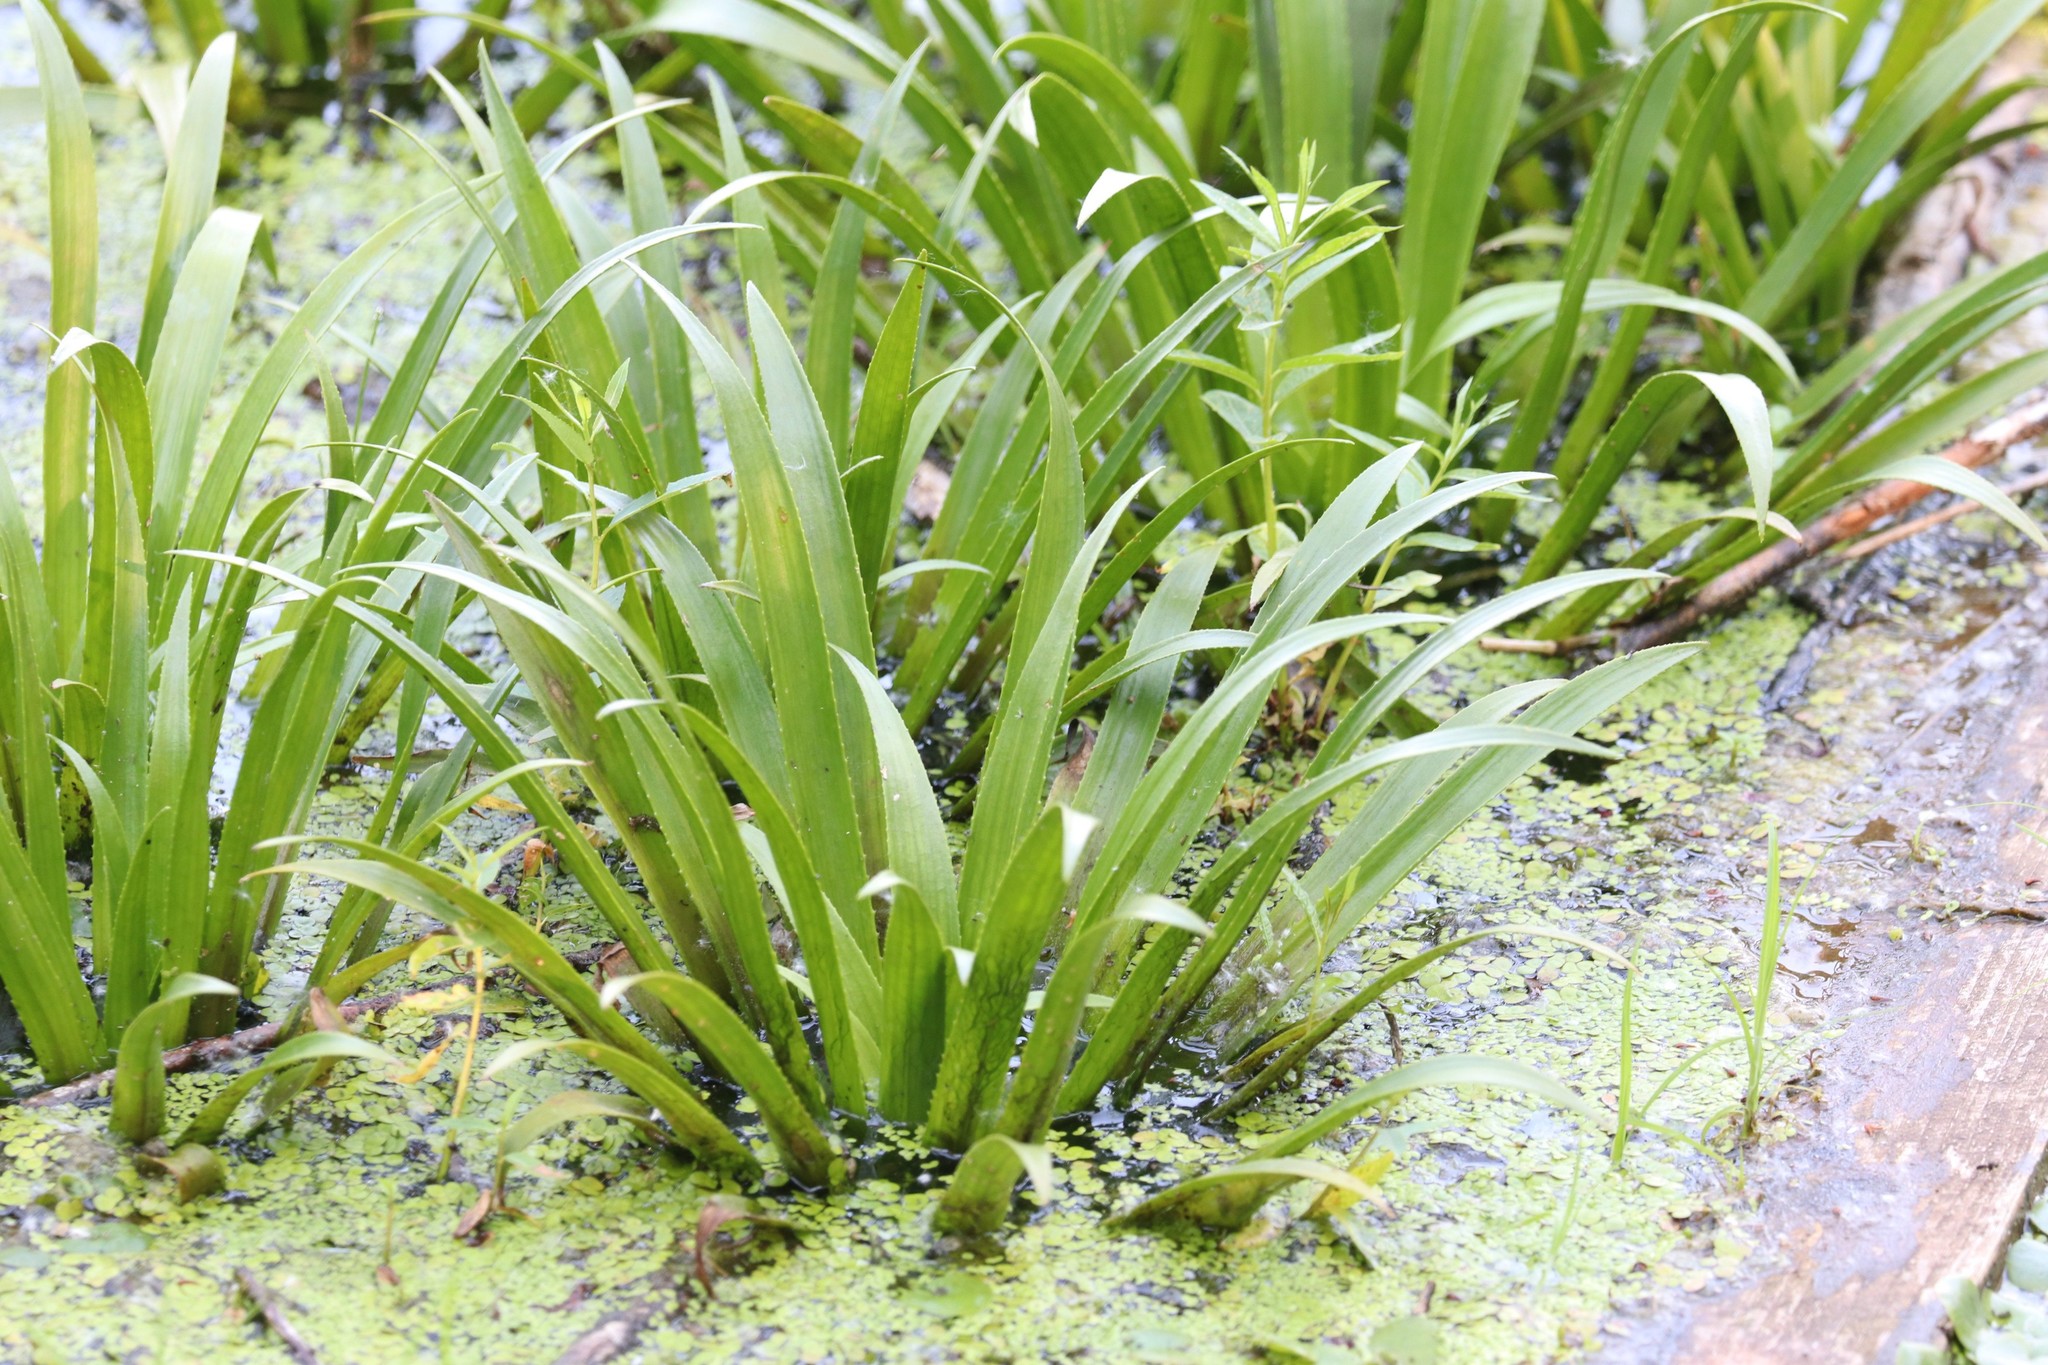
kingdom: Plantae
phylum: Tracheophyta
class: Liliopsida
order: Alismatales
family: Hydrocharitaceae
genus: Stratiotes
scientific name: Stratiotes aloides
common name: Water-soldier
